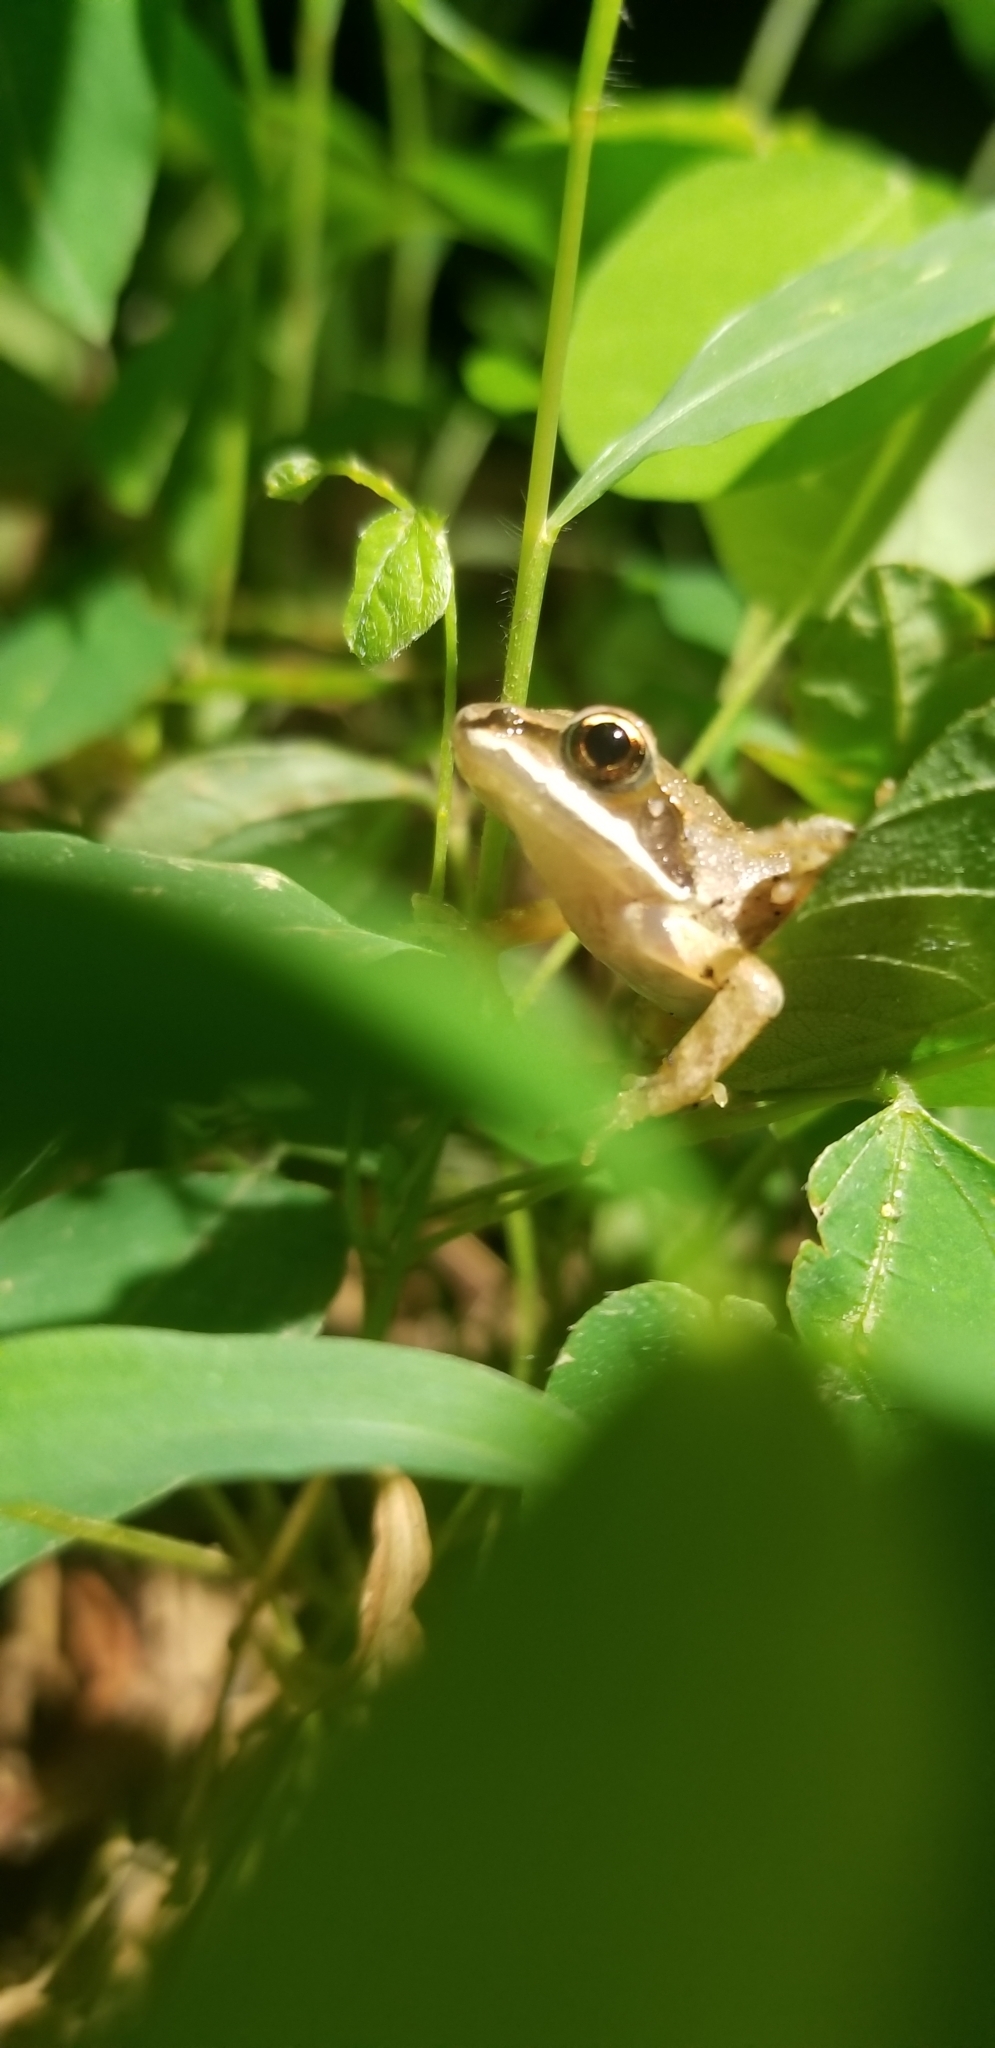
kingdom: Animalia
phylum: Chordata
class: Amphibia
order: Anura
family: Ranidae
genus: Lithobates
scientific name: Lithobates sylvaticus
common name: Wood frog
